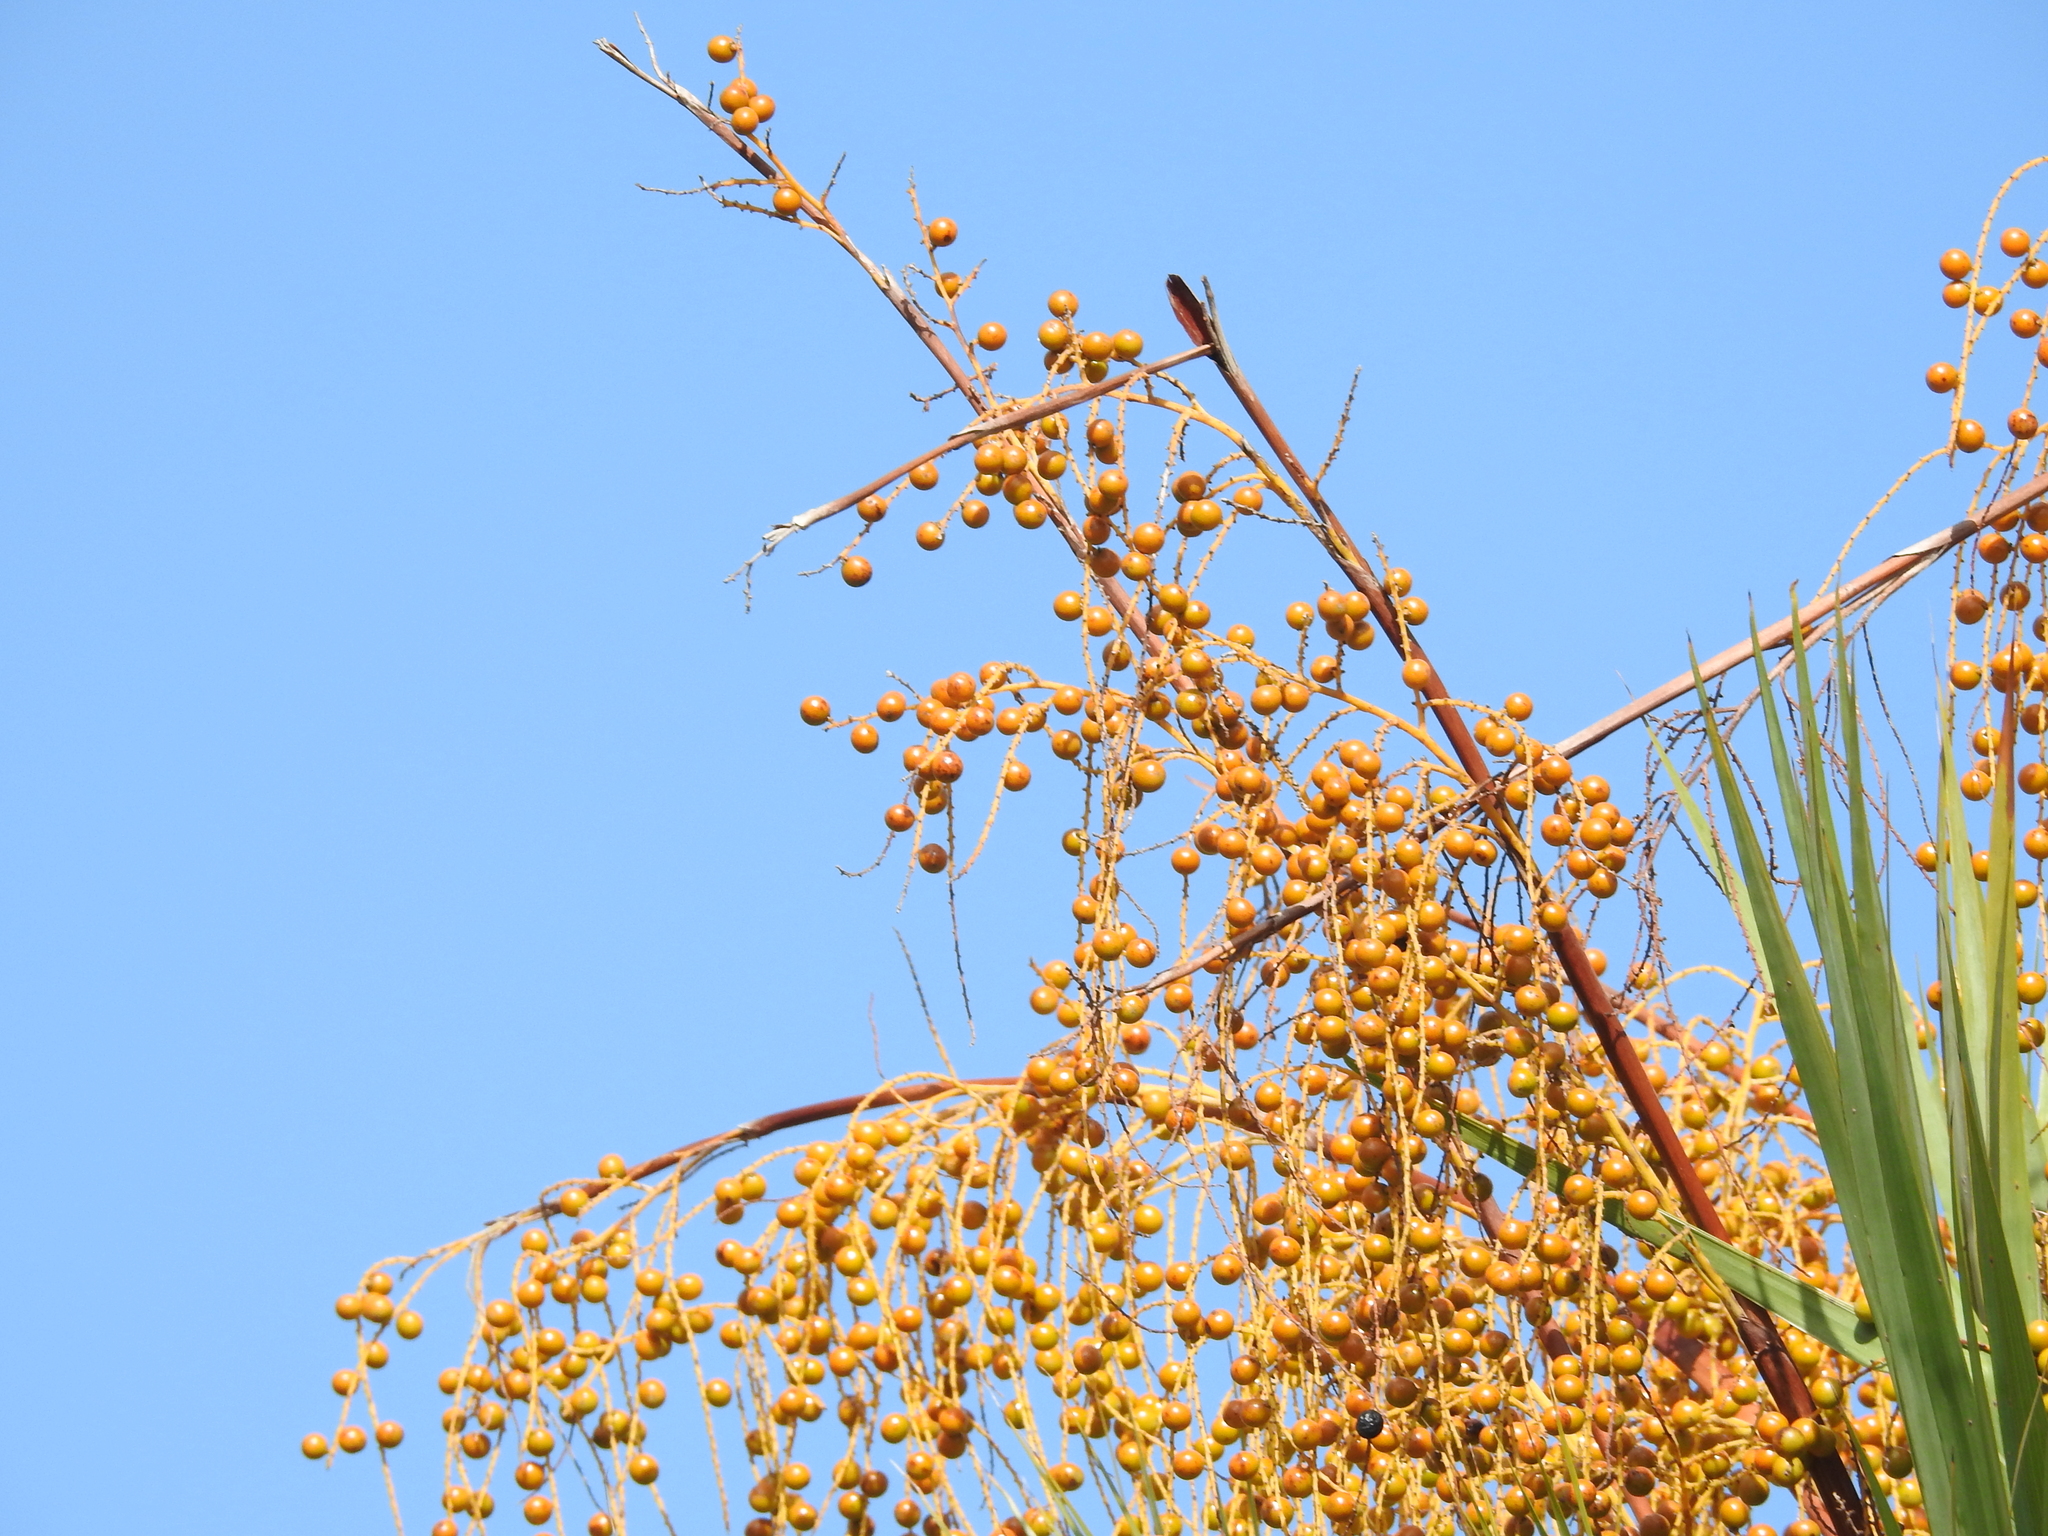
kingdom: Plantae
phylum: Tracheophyta
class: Liliopsida
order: Arecales
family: Arecaceae
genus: Acoelorraphe
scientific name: Acoelorraphe wrightii
